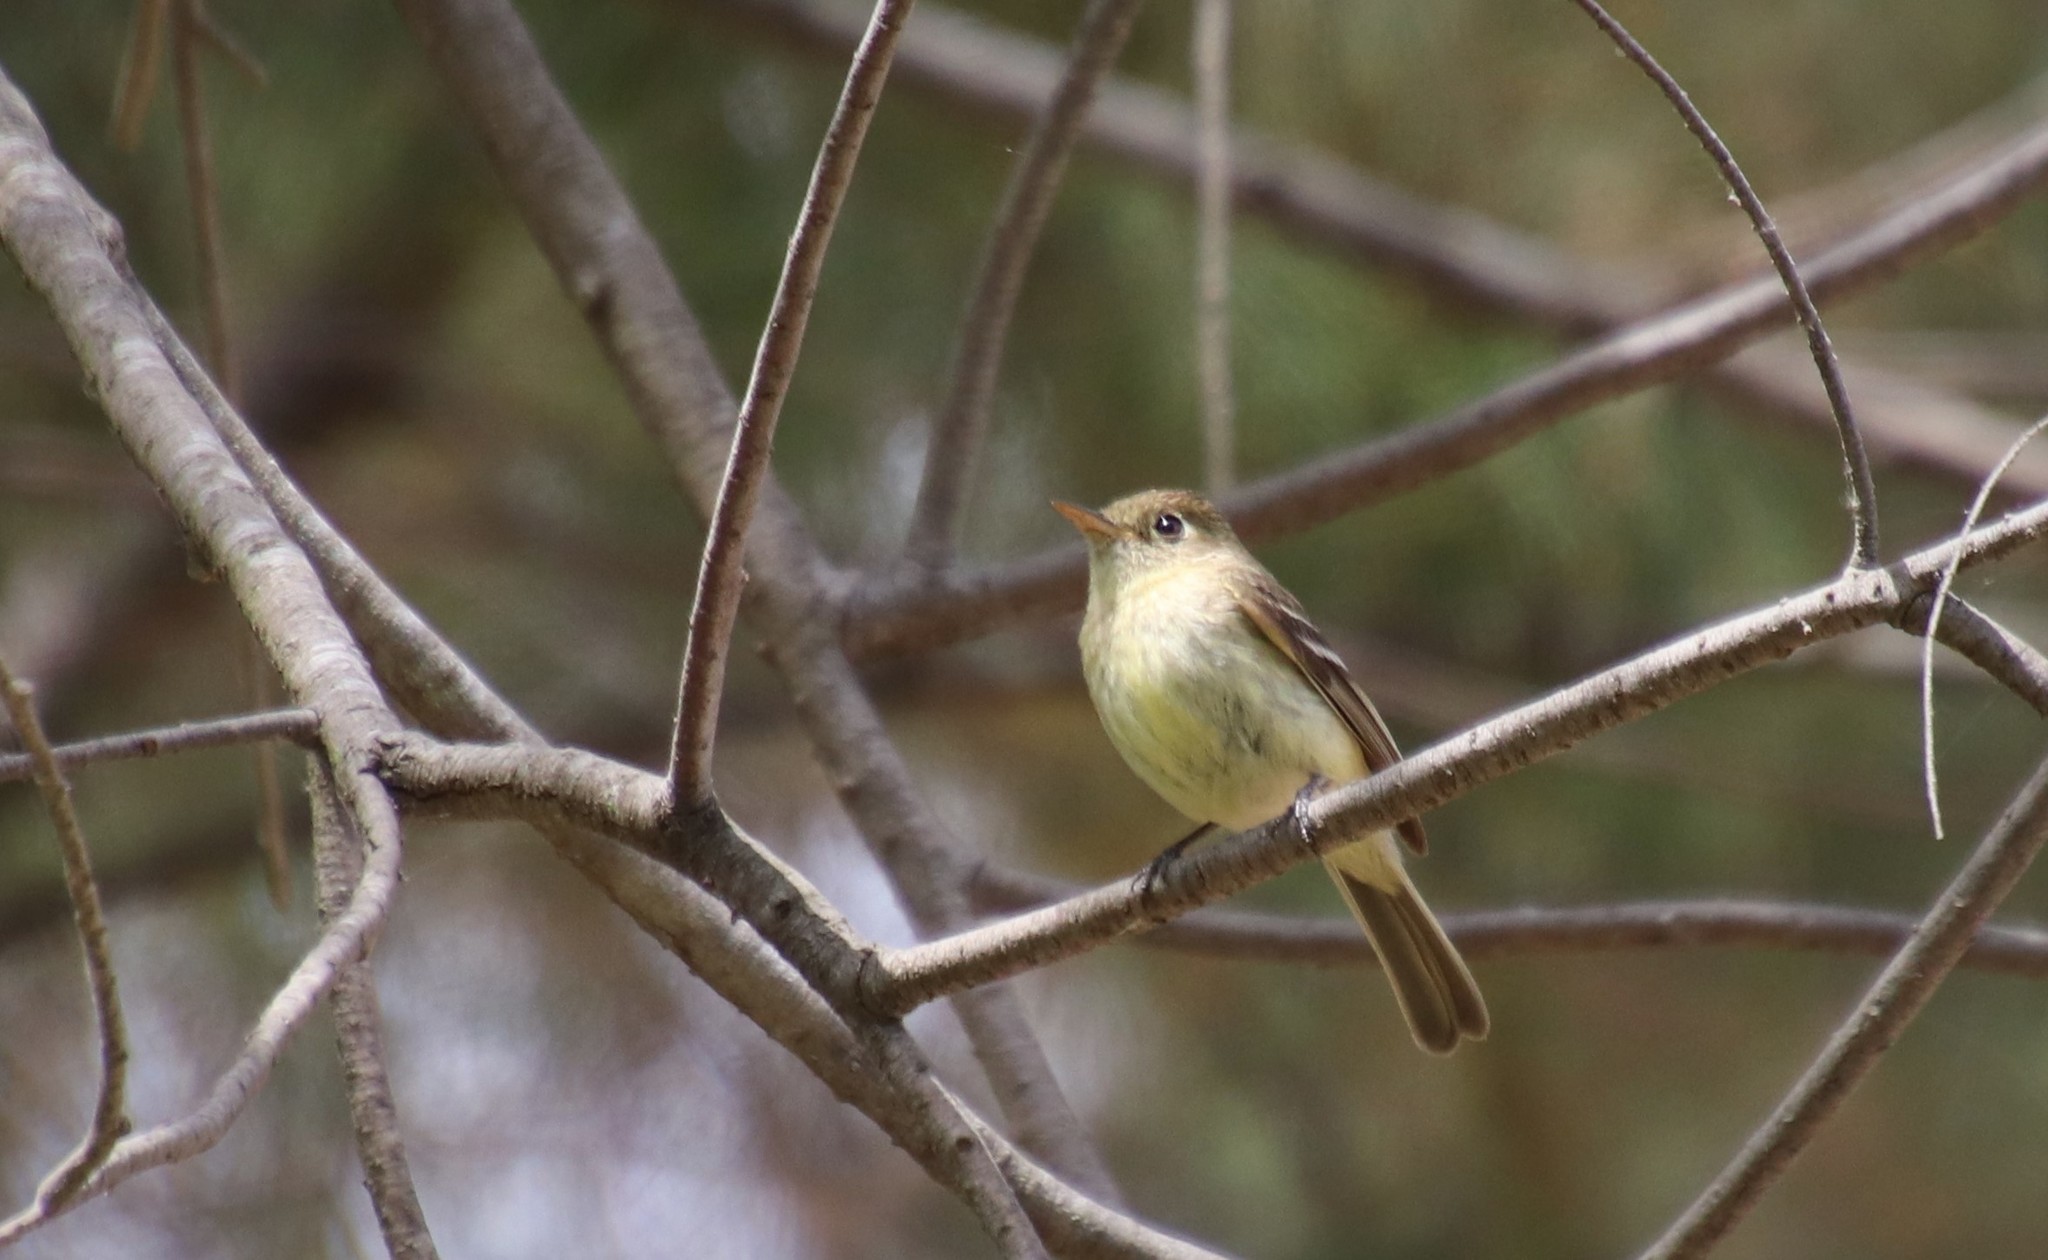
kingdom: Animalia
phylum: Chordata
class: Aves
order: Passeriformes
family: Tyrannidae
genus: Empidonax
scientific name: Empidonax difficilis
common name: Pacific-slope flycatcher
